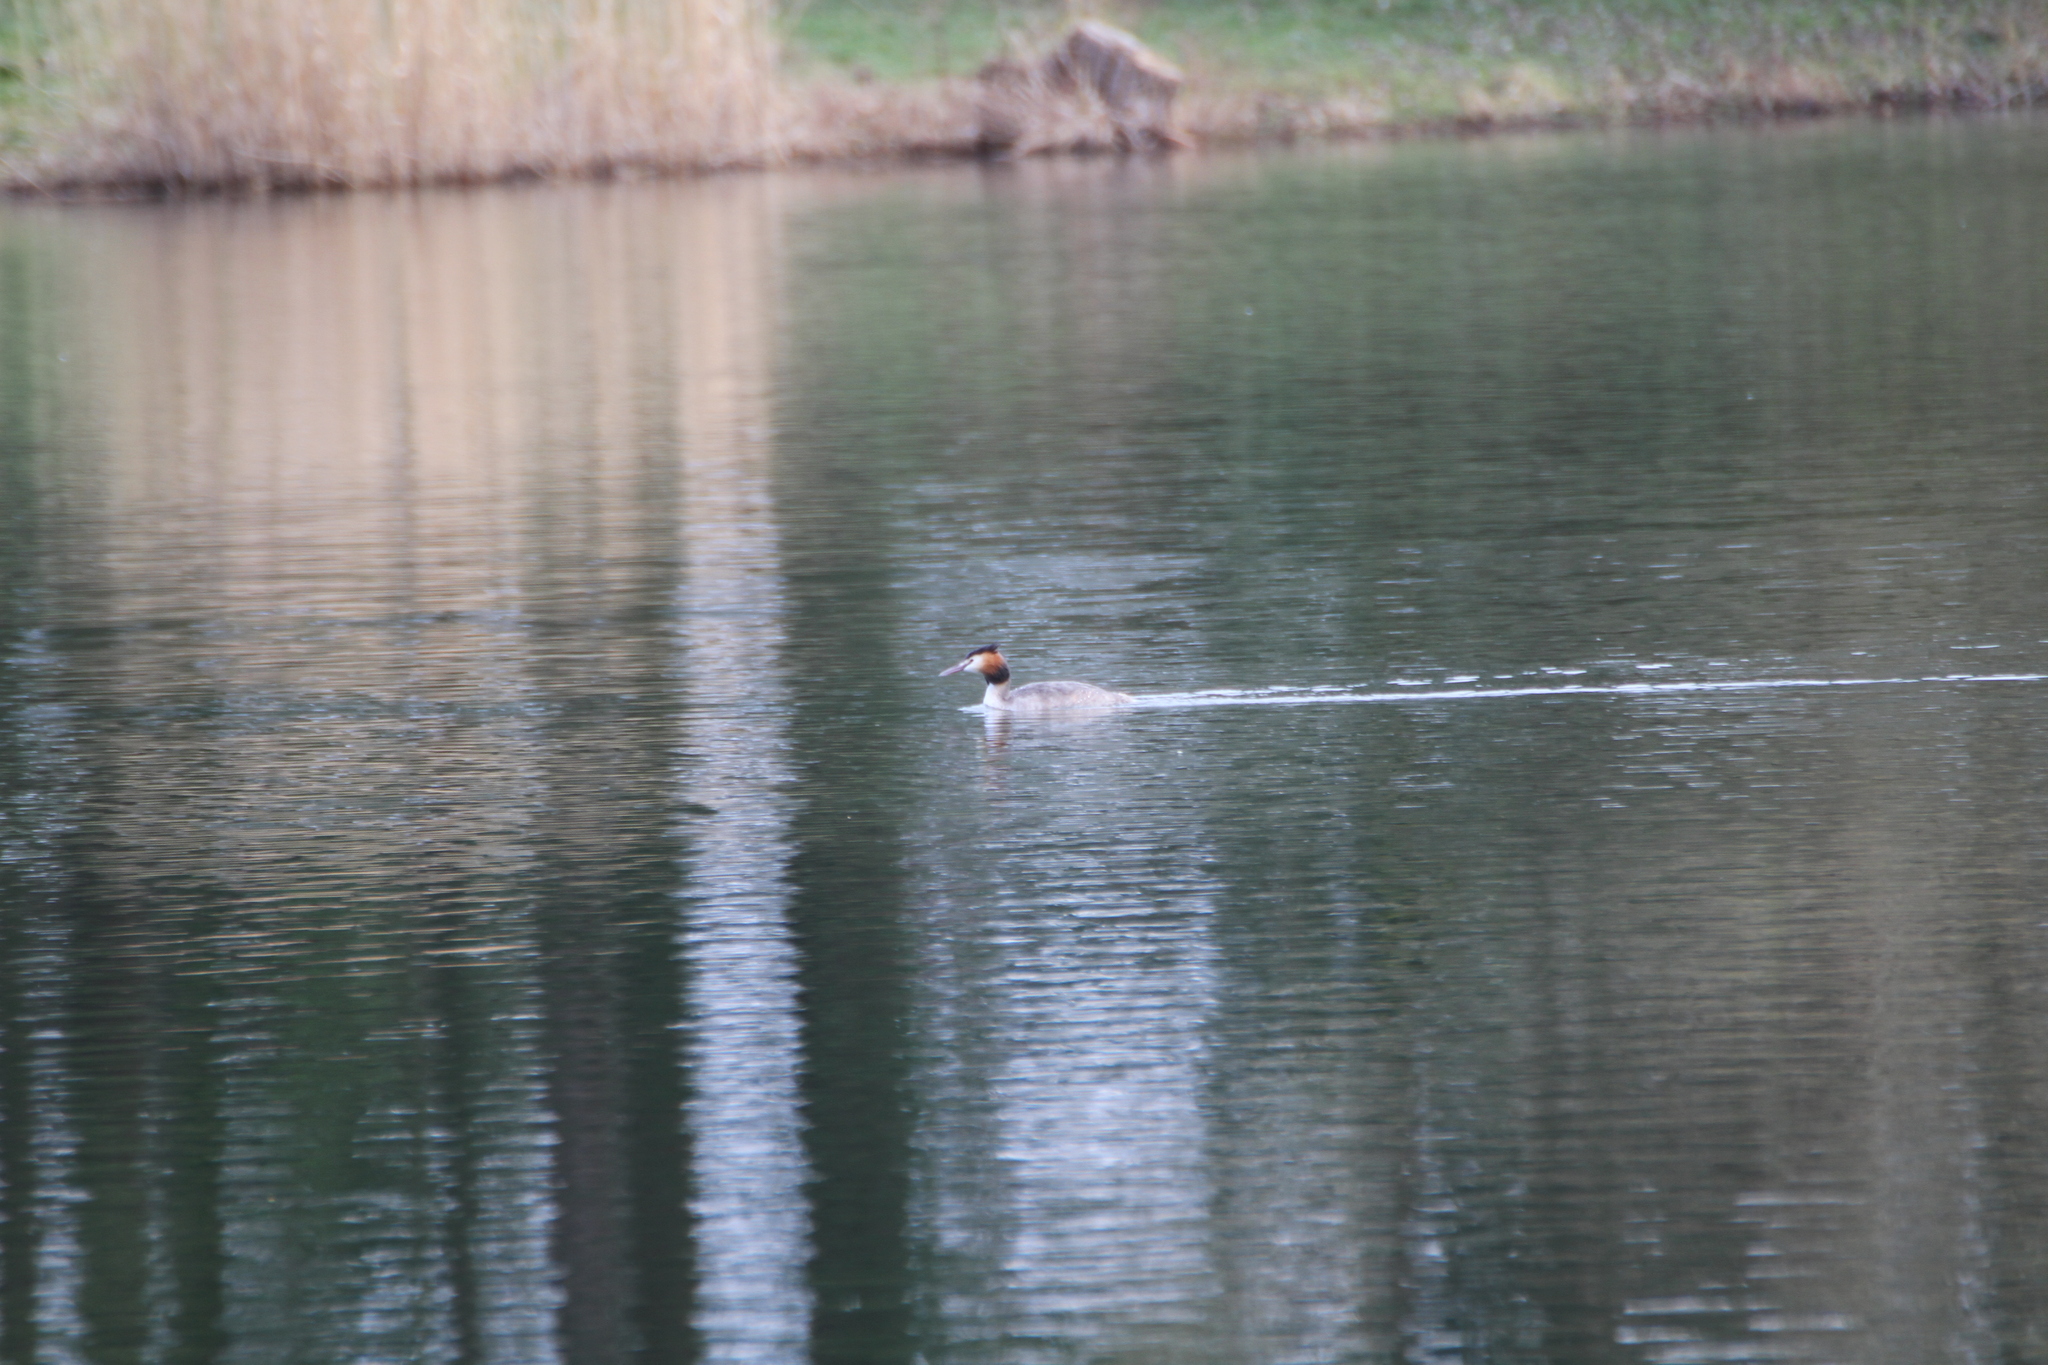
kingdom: Animalia
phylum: Chordata
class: Aves
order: Podicipediformes
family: Podicipedidae
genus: Podiceps
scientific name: Podiceps cristatus
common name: Great crested grebe
